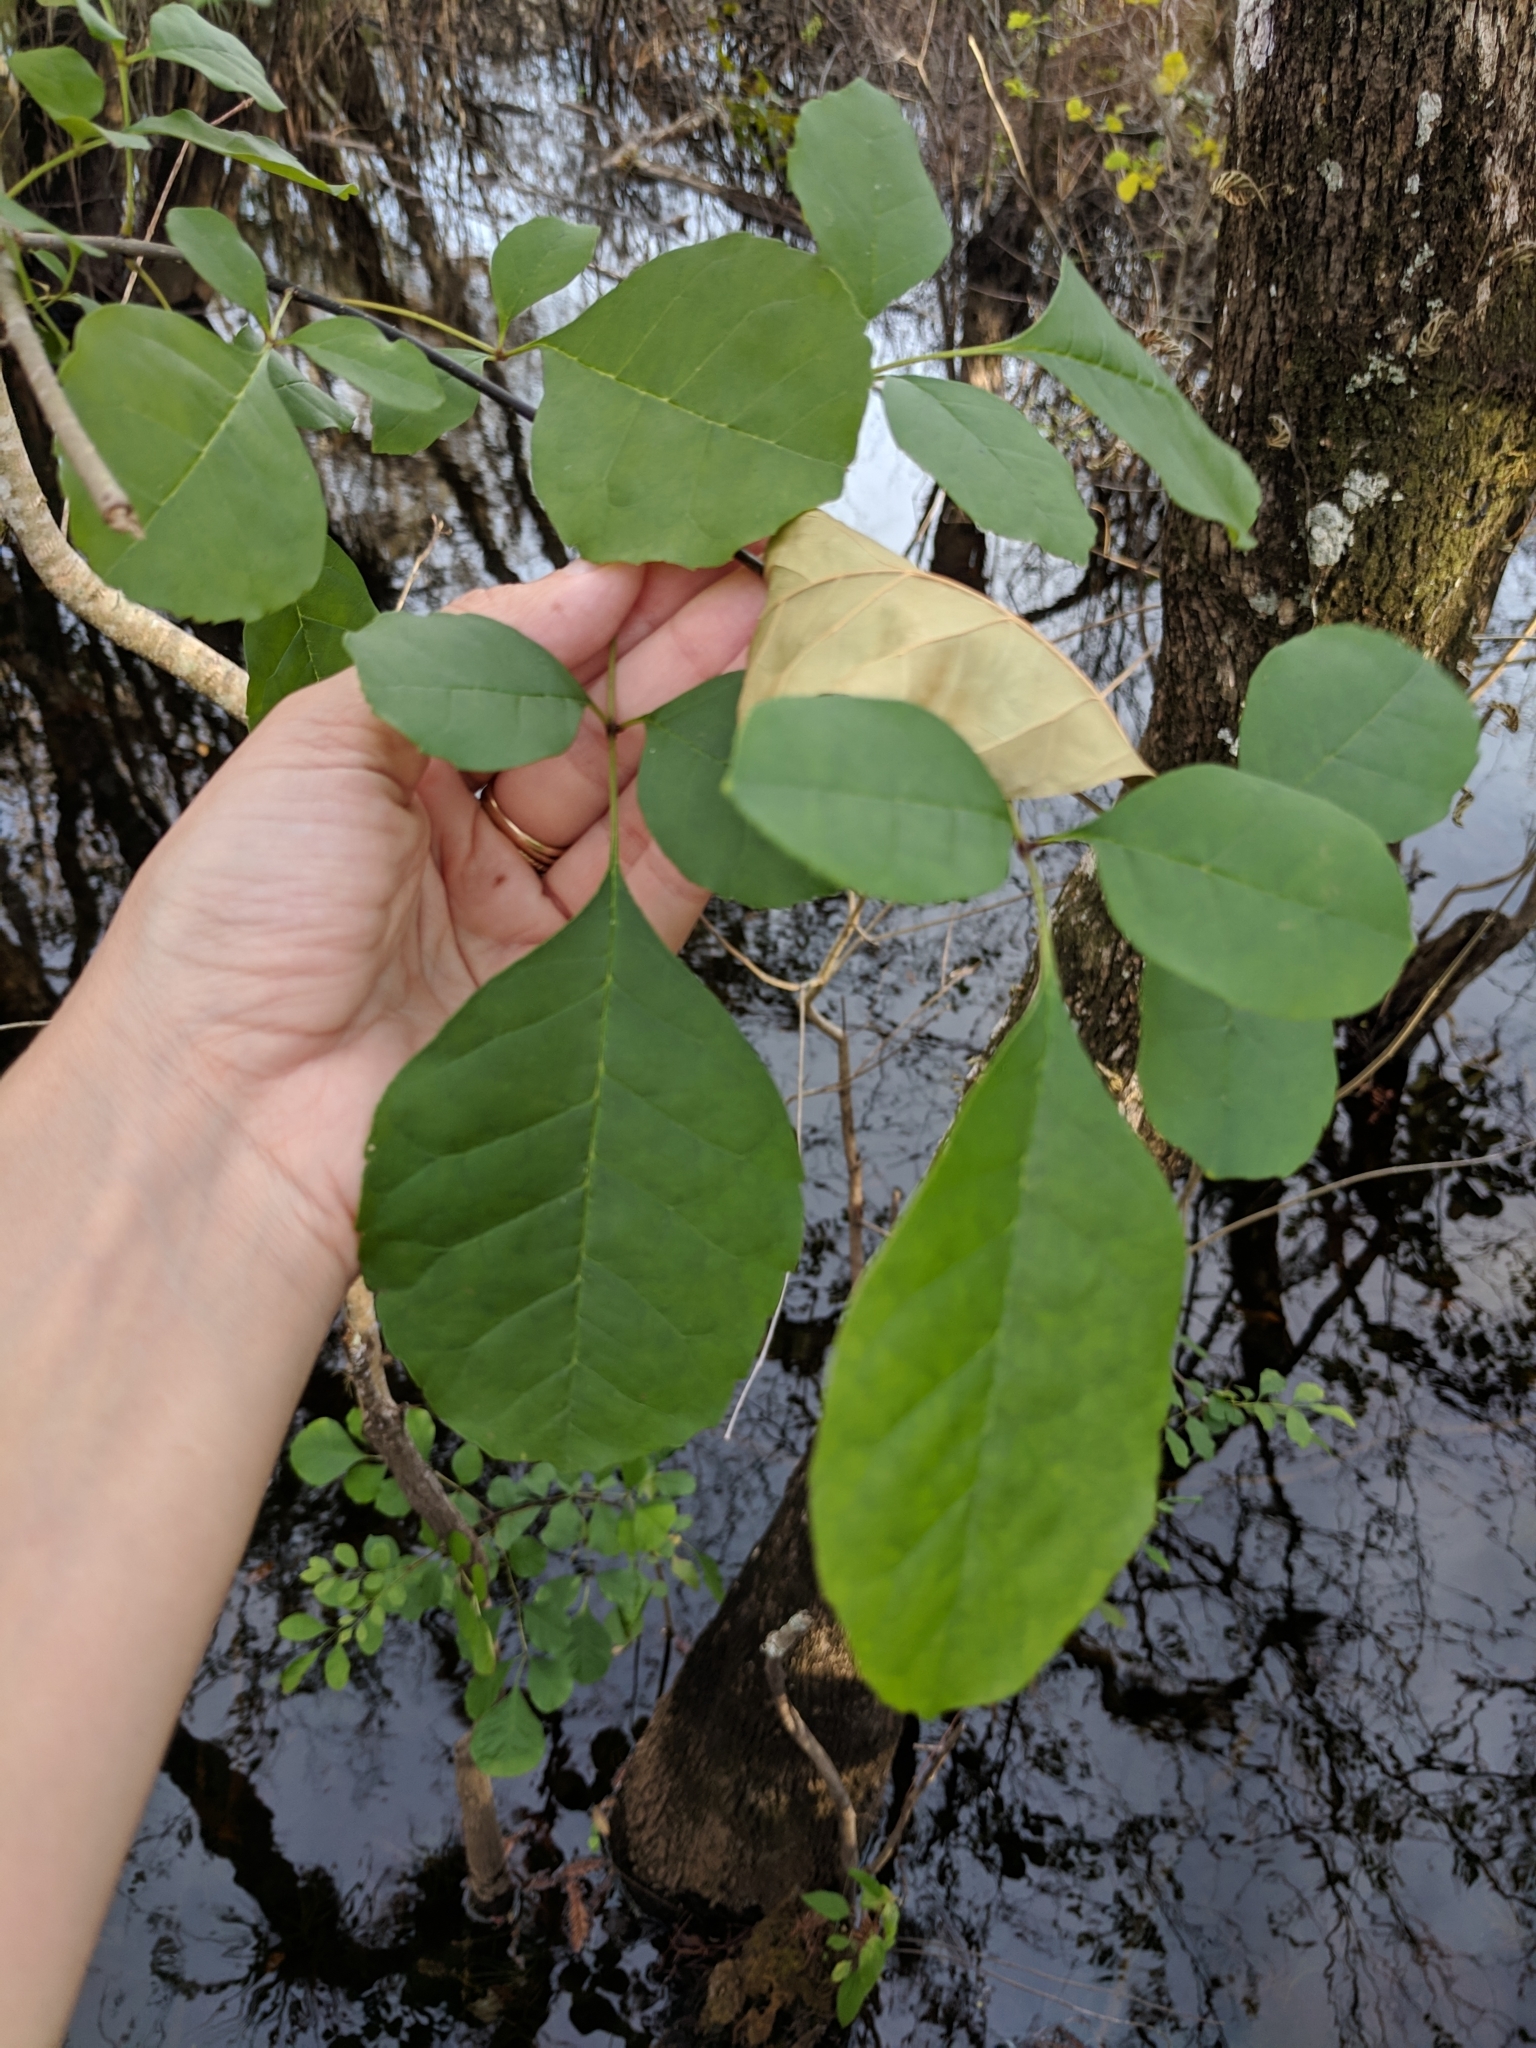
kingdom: Plantae
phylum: Tracheophyta
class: Magnoliopsida
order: Lamiales
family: Oleaceae
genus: Fraxinus
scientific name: Fraxinus caroliniana
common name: Carolina ash
